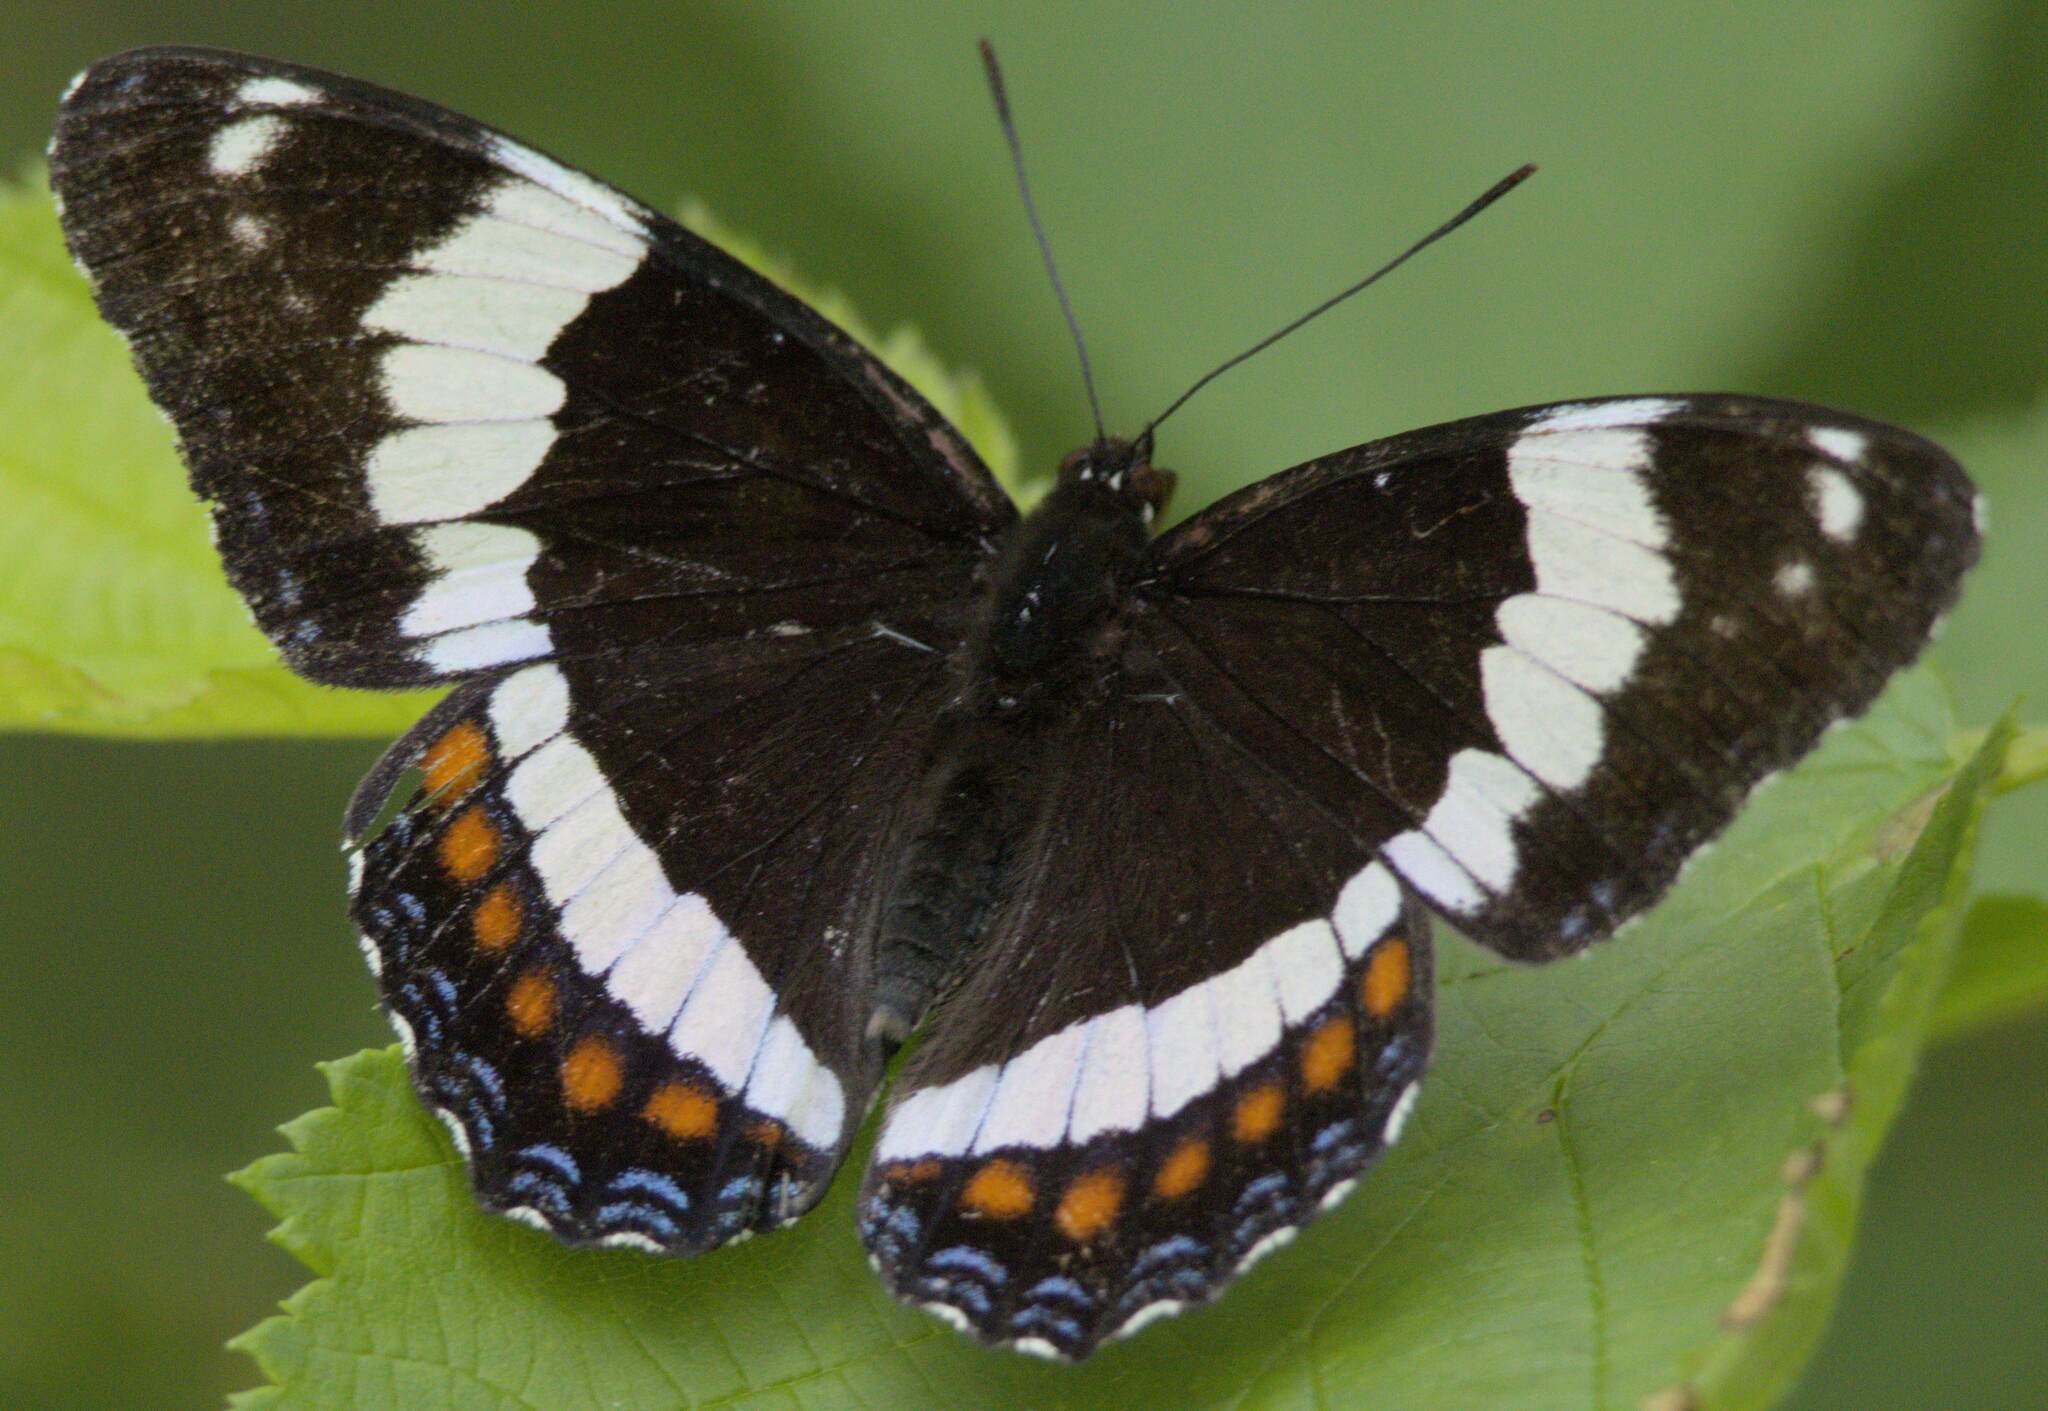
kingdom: Animalia
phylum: Arthropoda
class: Insecta
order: Lepidoptera
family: Nymphalidae
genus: Limenitis
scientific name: Limenitis arthemis
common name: Red-spotted admiral
